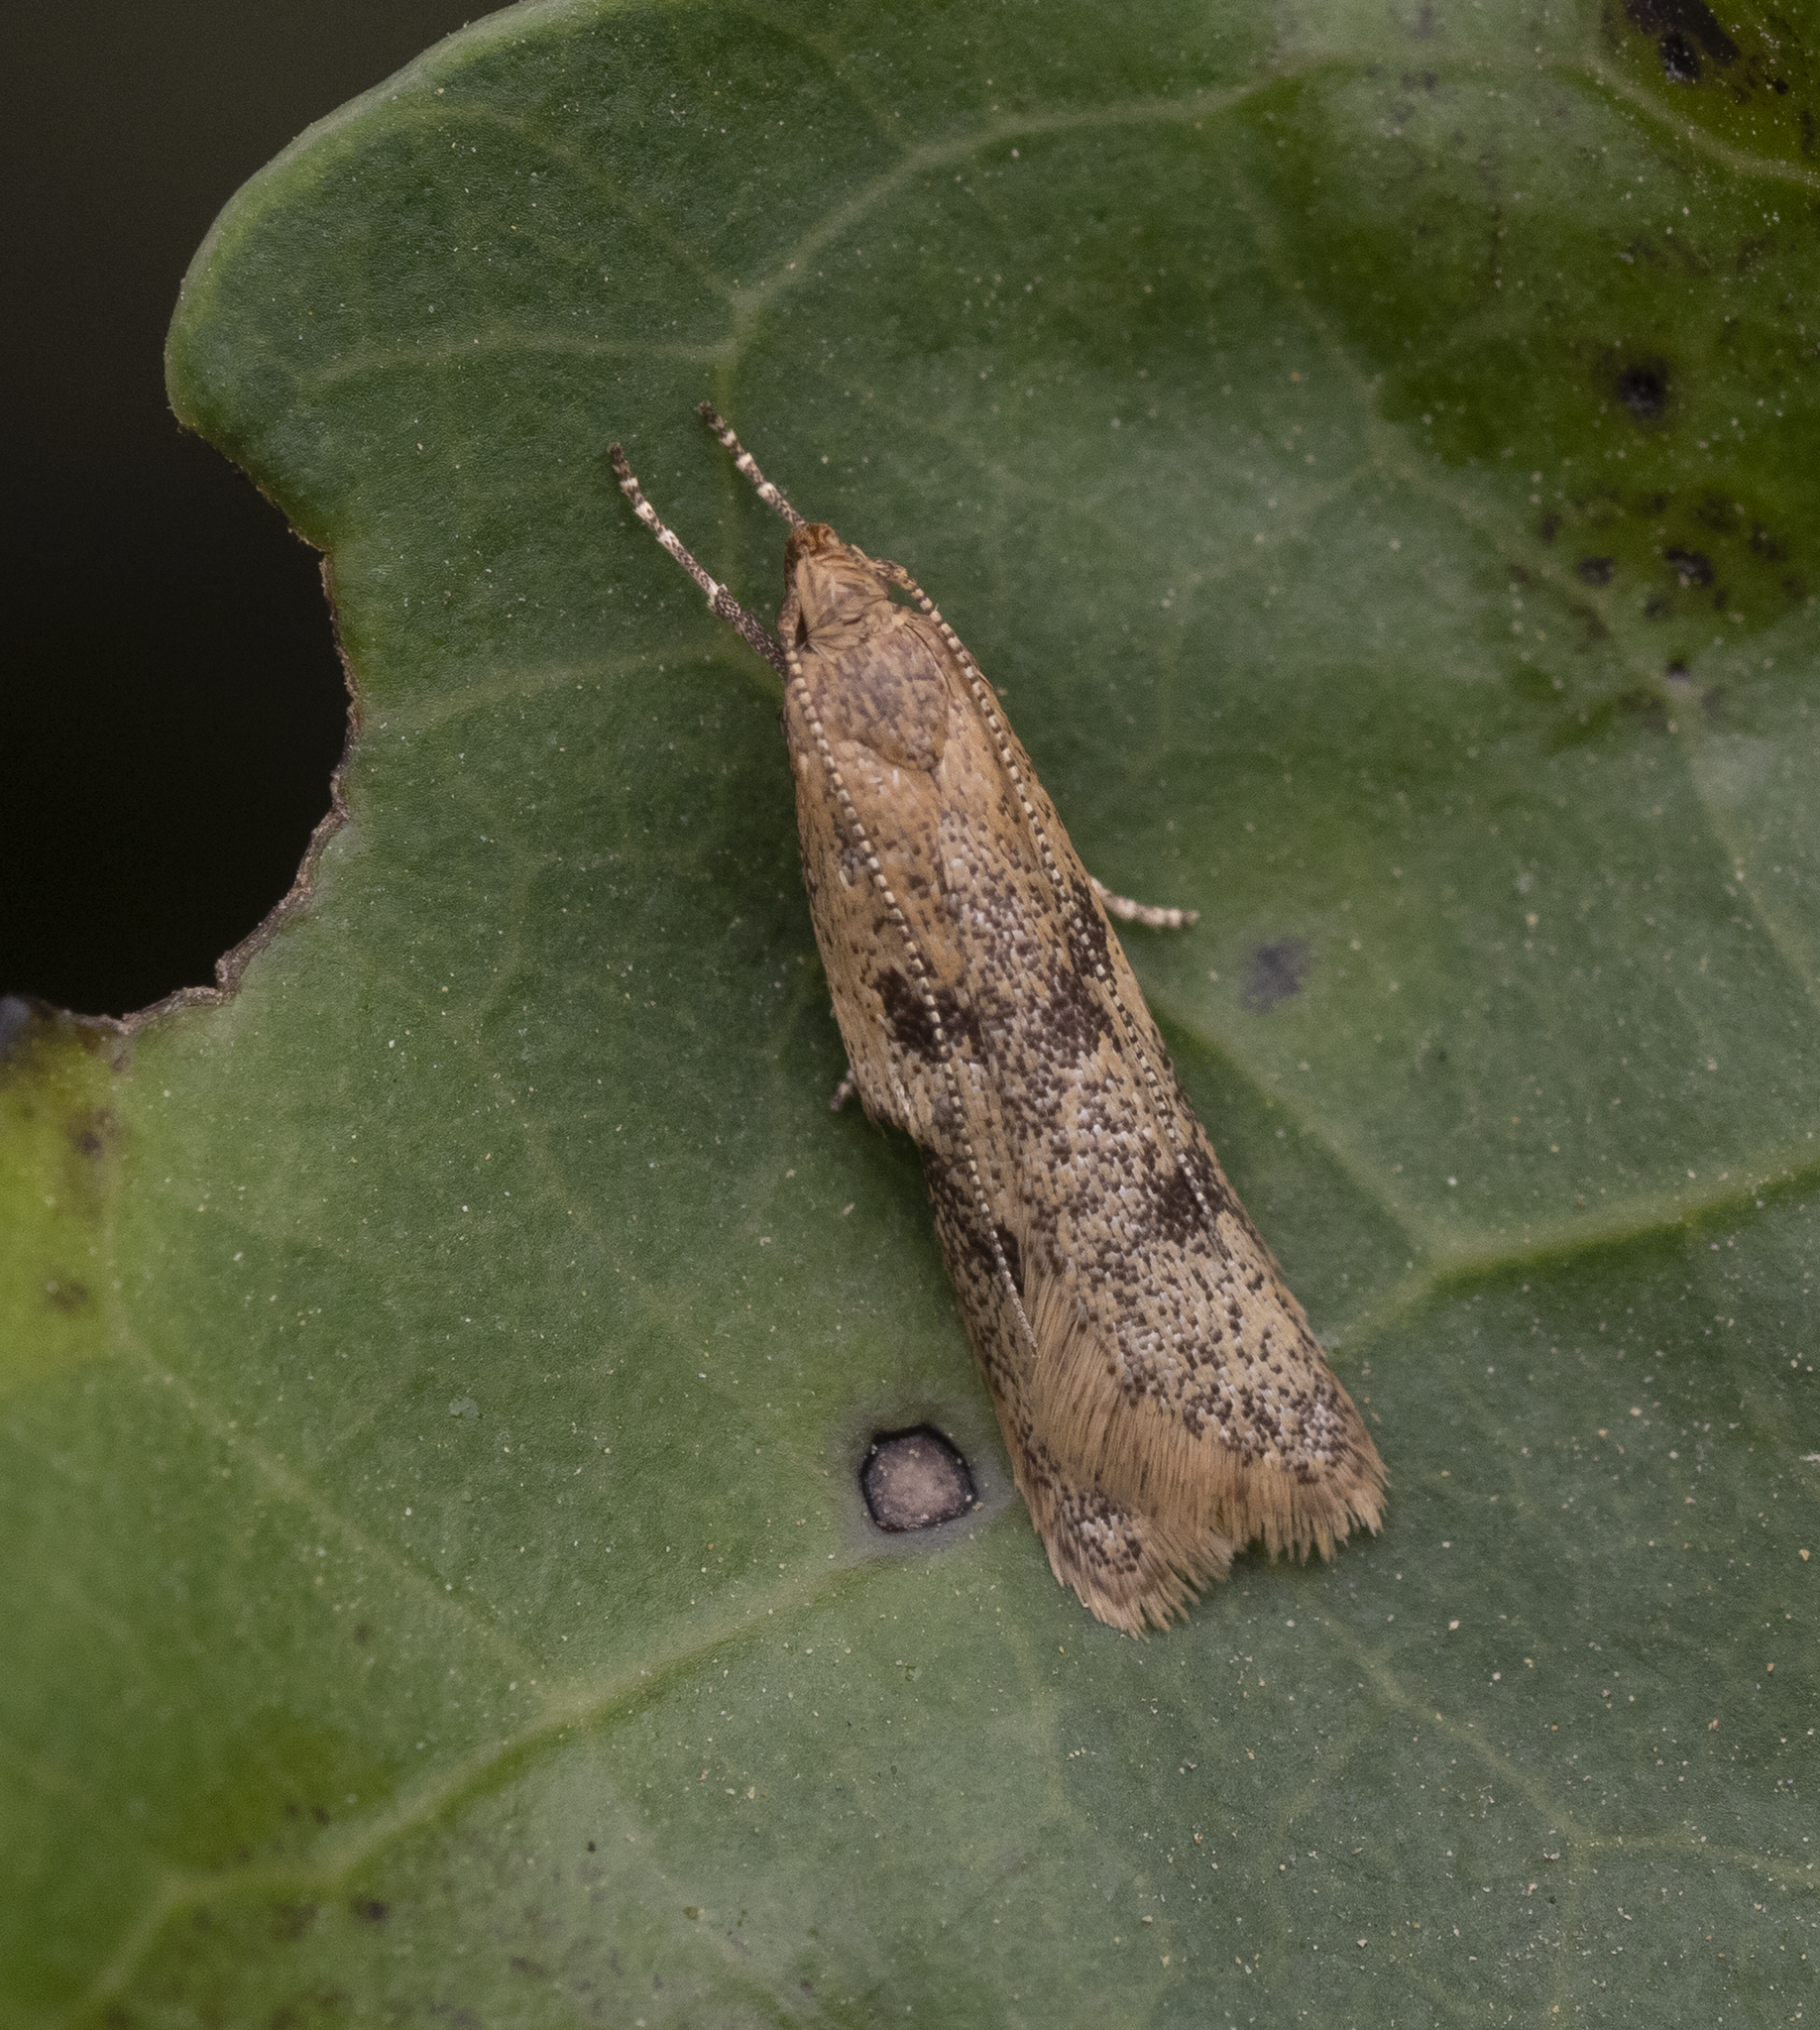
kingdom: Animalia
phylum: Arthropoda
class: Insecta
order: Lepidoptera
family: Oecophoridae
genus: Gymnobathra
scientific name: Gymnobathra tholodella
